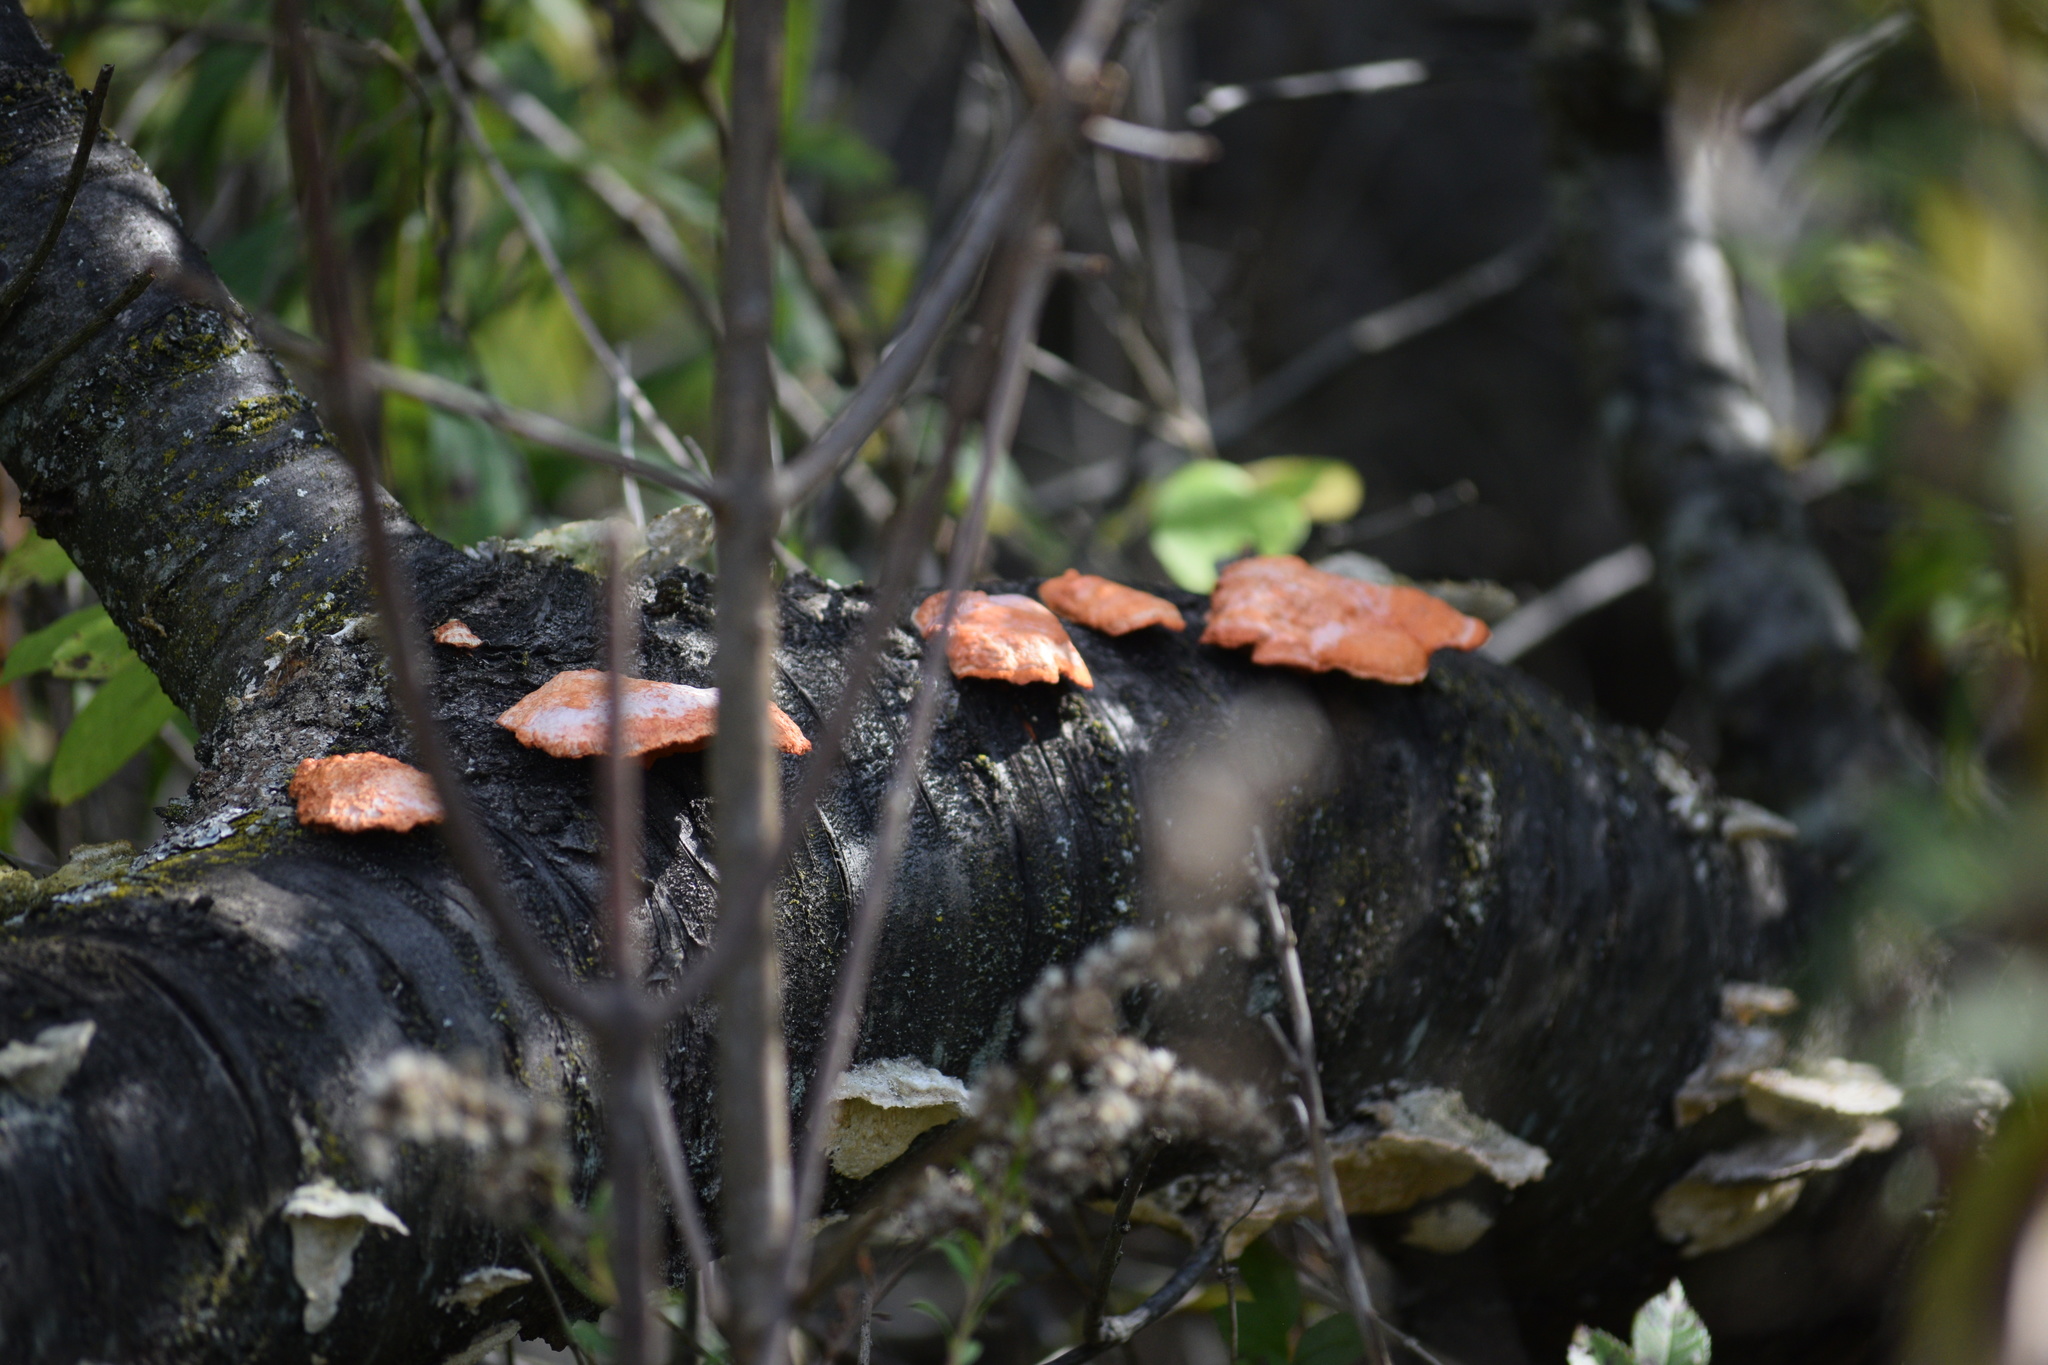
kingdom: Fungi
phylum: Basidiomycota
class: Agaricomycetes
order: Polyporales
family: Polyporaceae
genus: Trametes
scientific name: Trametes cinnabarina
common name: Northern cinnabar polypore
